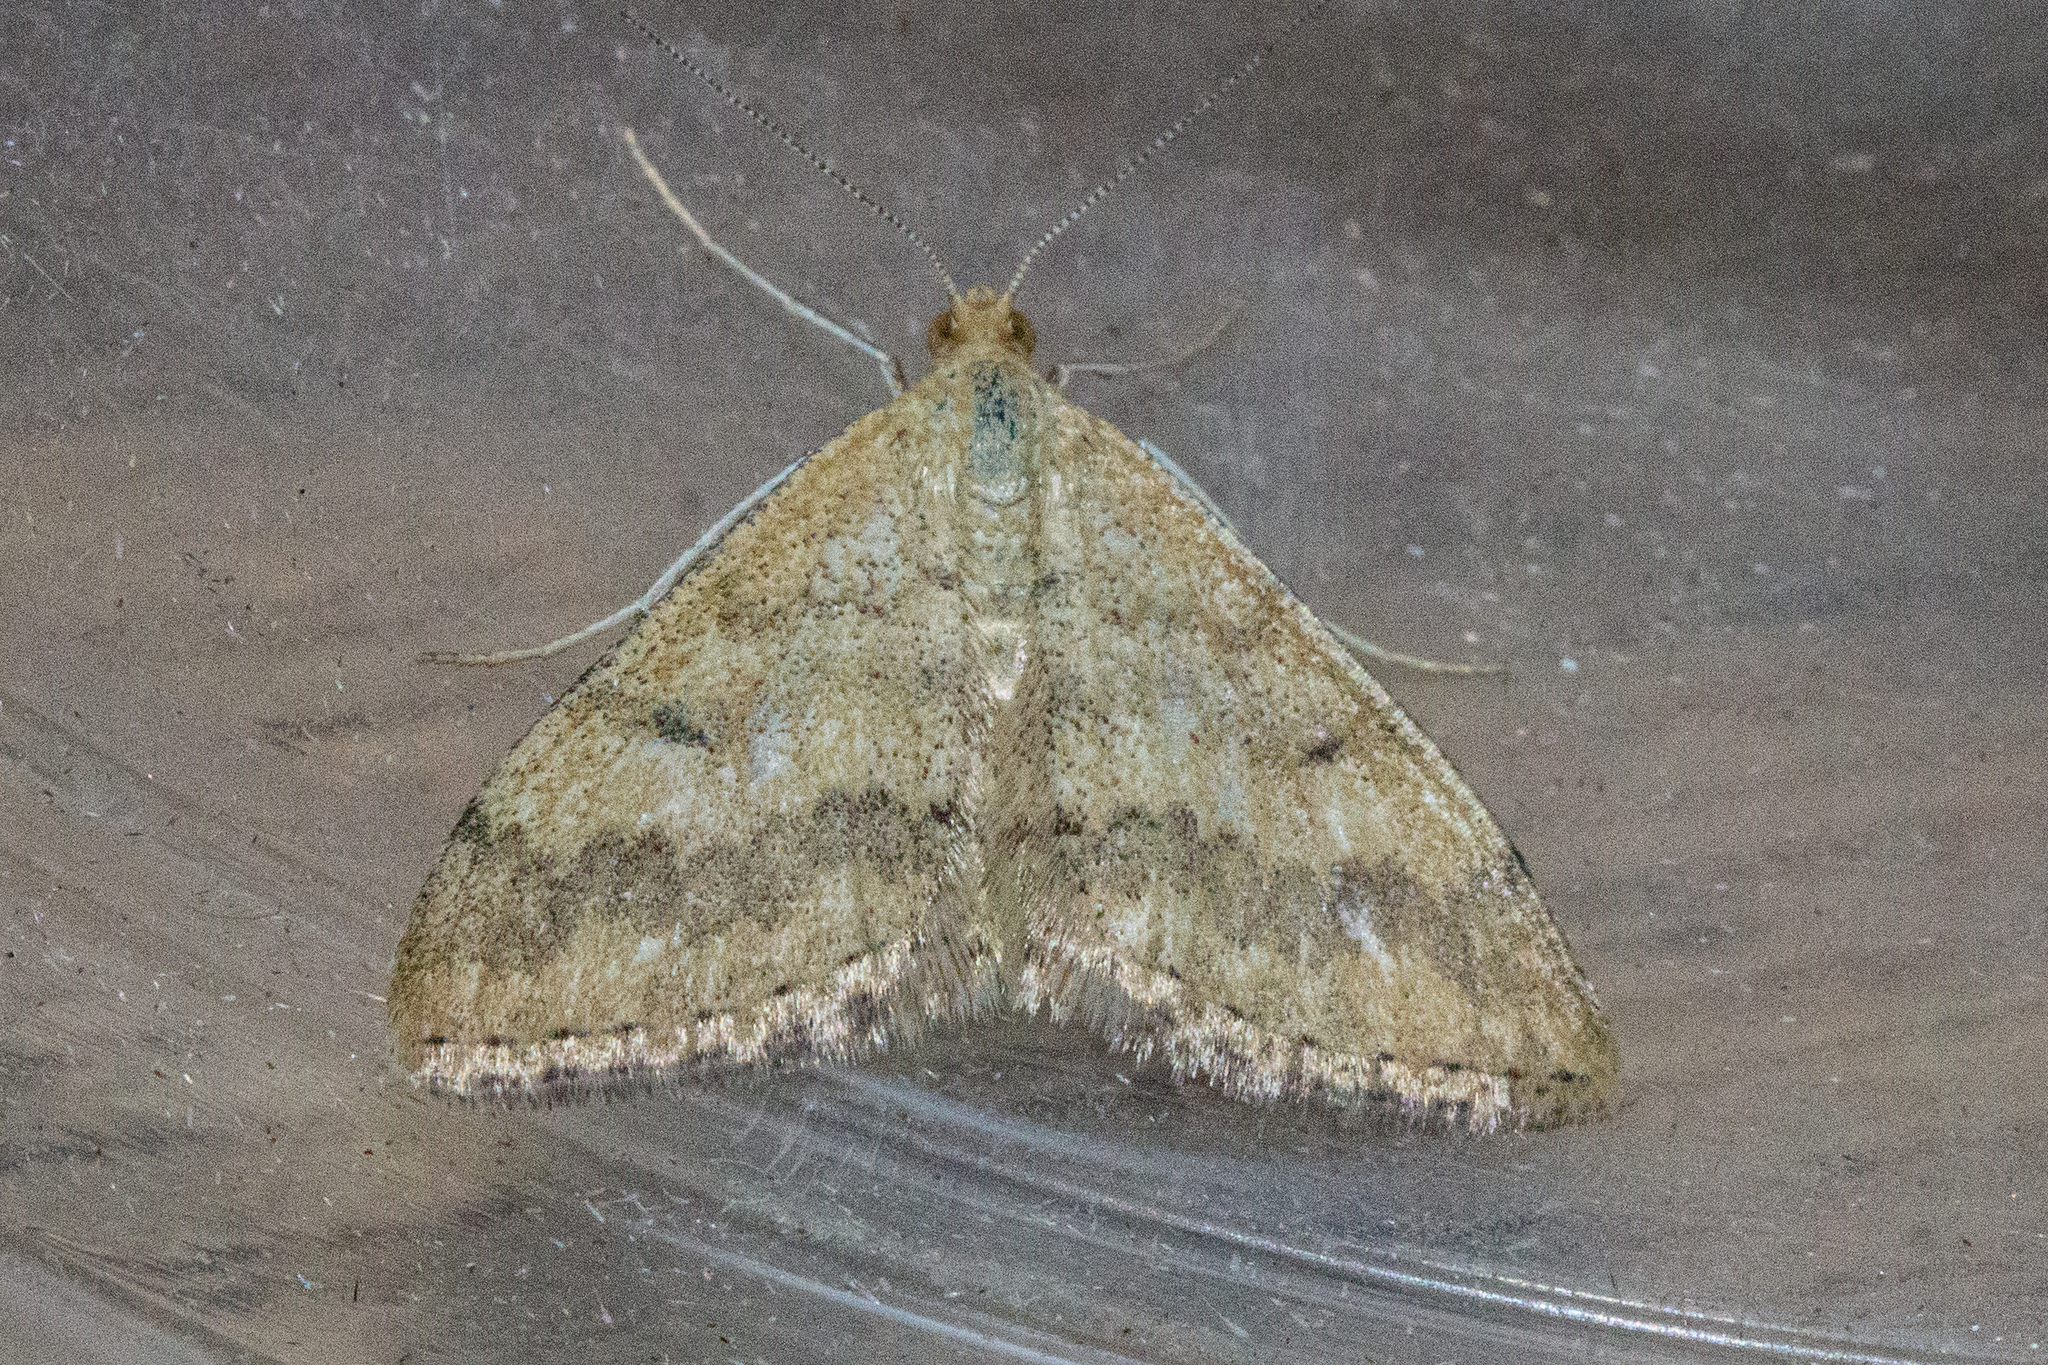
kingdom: Animalia
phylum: Arthropoda
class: Insecta
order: Lepidoptera
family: Geometridae
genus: Scopula
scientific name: Scopula rubraria
